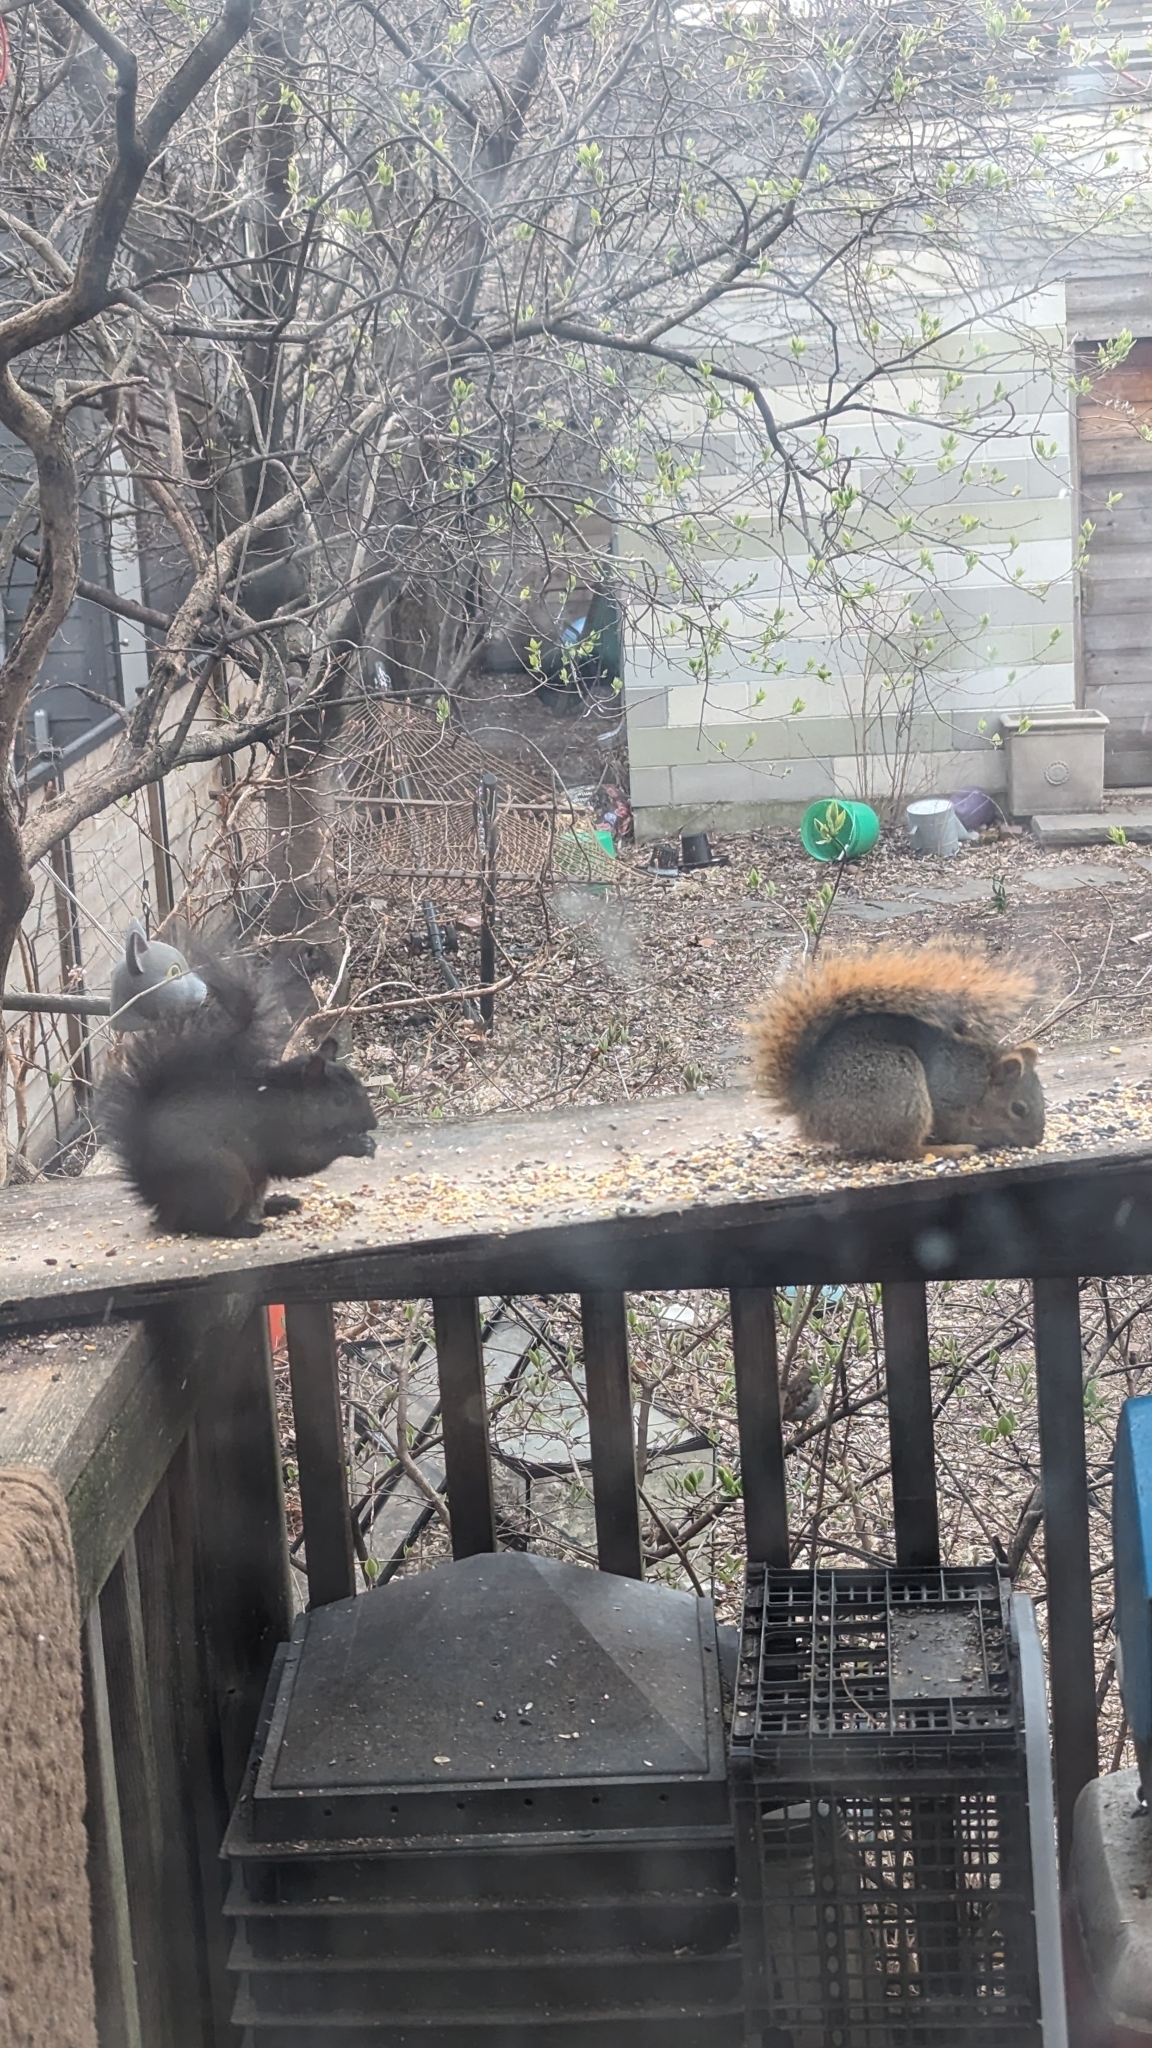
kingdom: Animalia
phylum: Chordata
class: Mammalia
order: Rodentia
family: Sciuridae
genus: Sciurus
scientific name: Sciurus niger
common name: Fox squirrel
